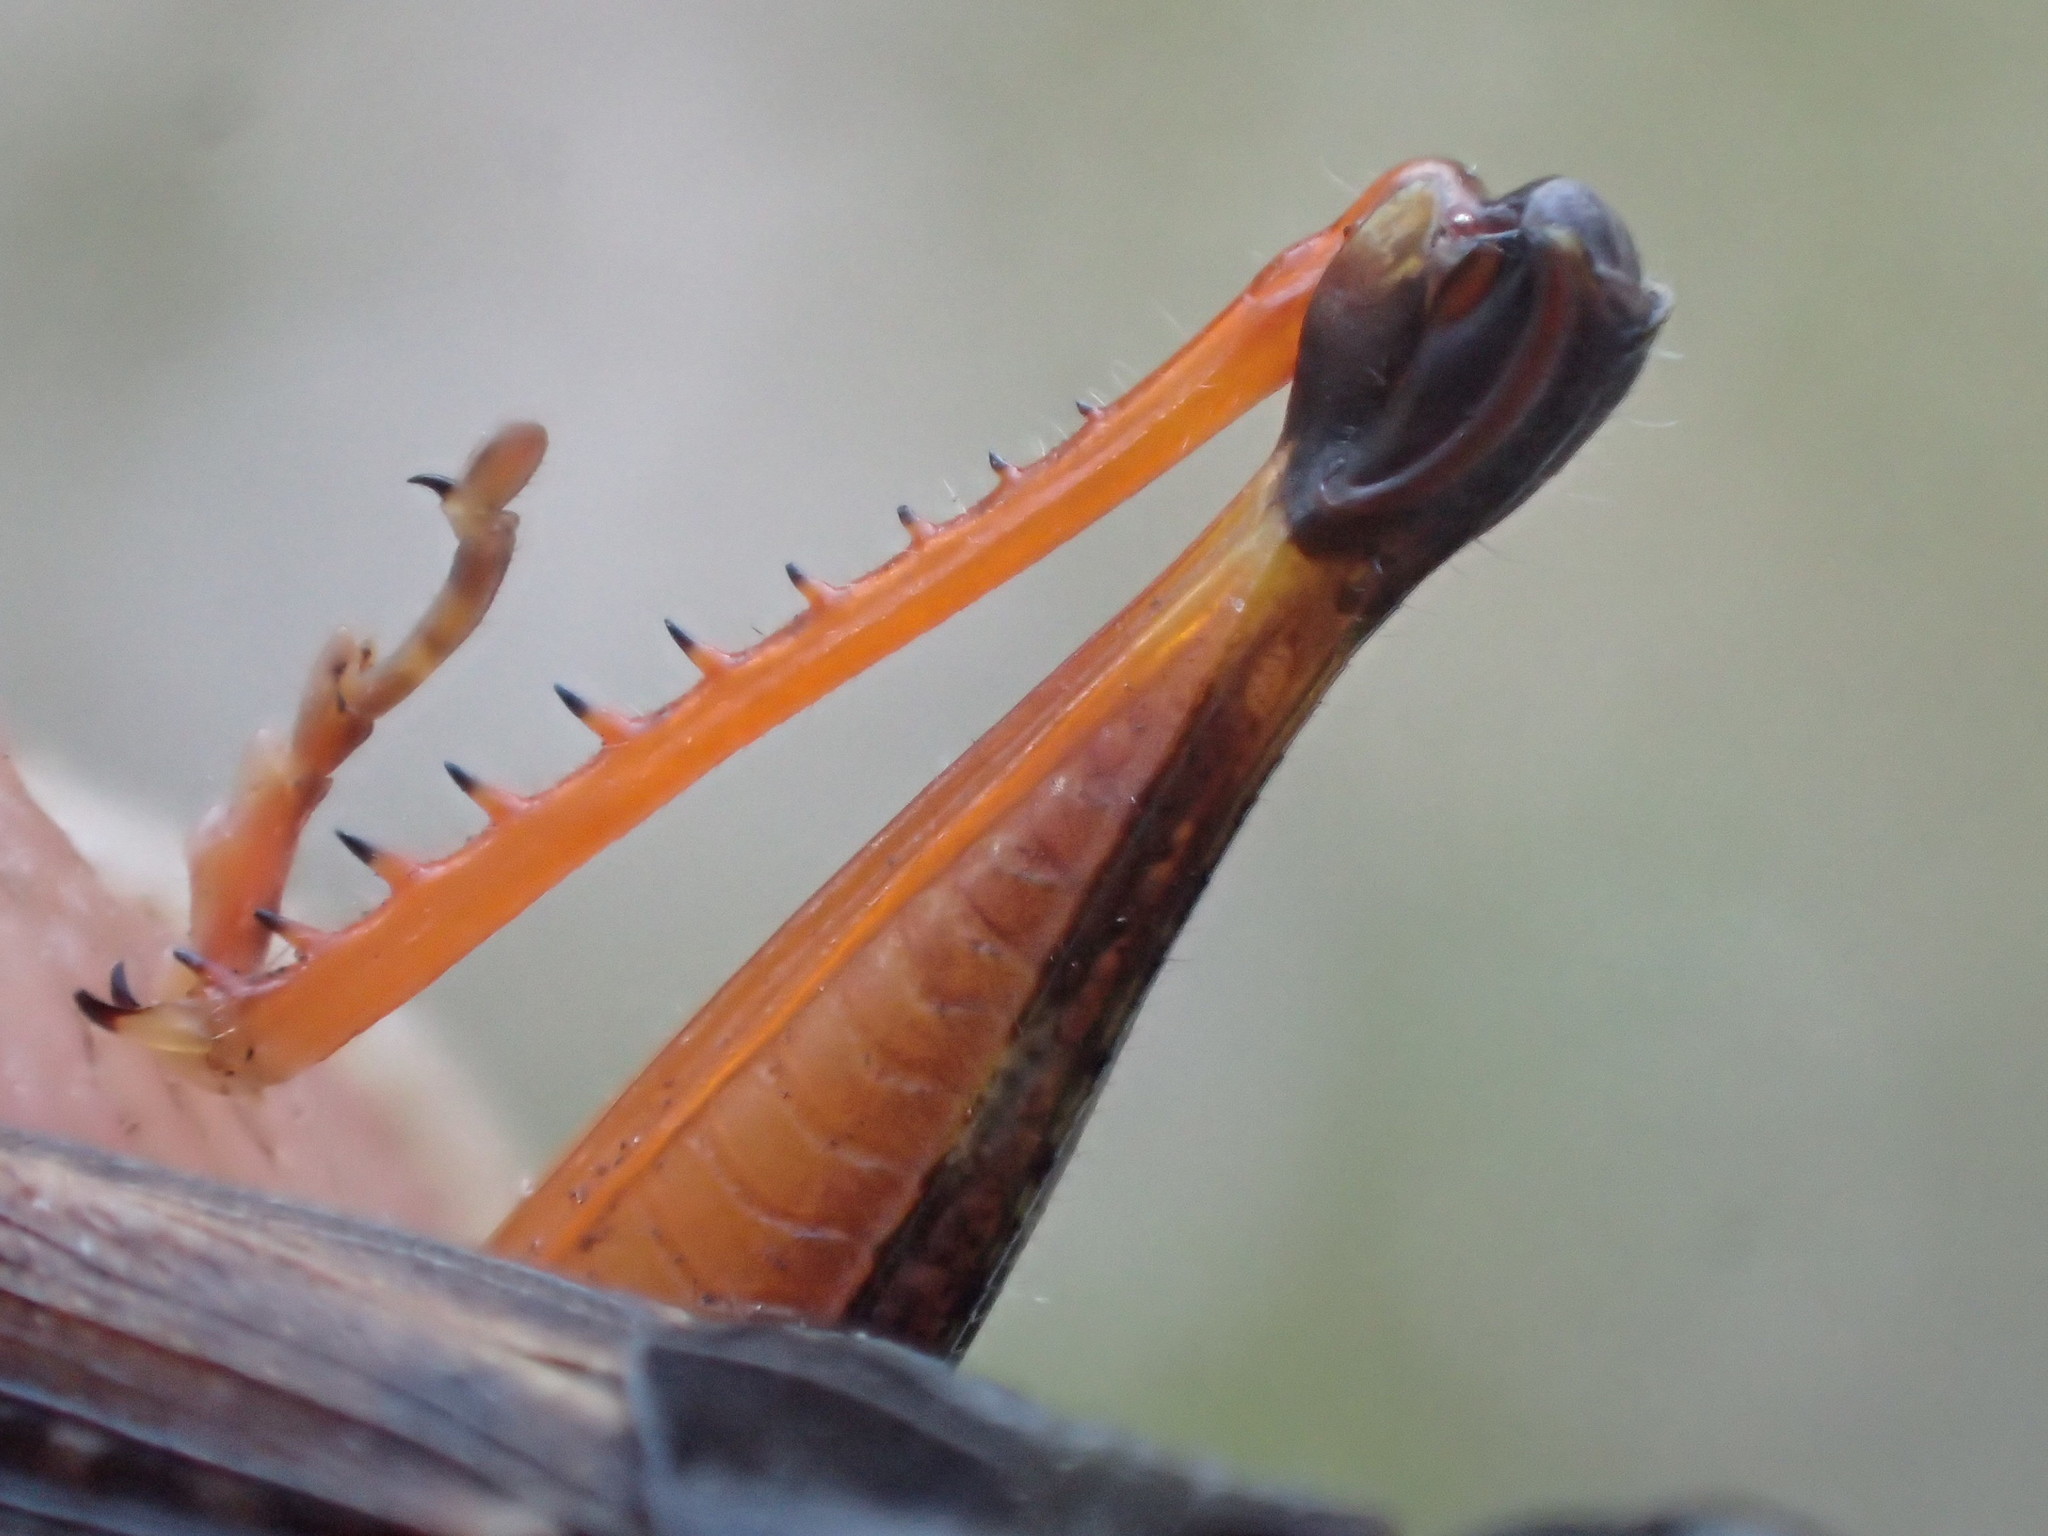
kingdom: Animalia
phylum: Arthropoda
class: Insecta
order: Orthoptera
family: Acrididae
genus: Exarna
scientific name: Exarna includens
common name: Red-legged exarna
